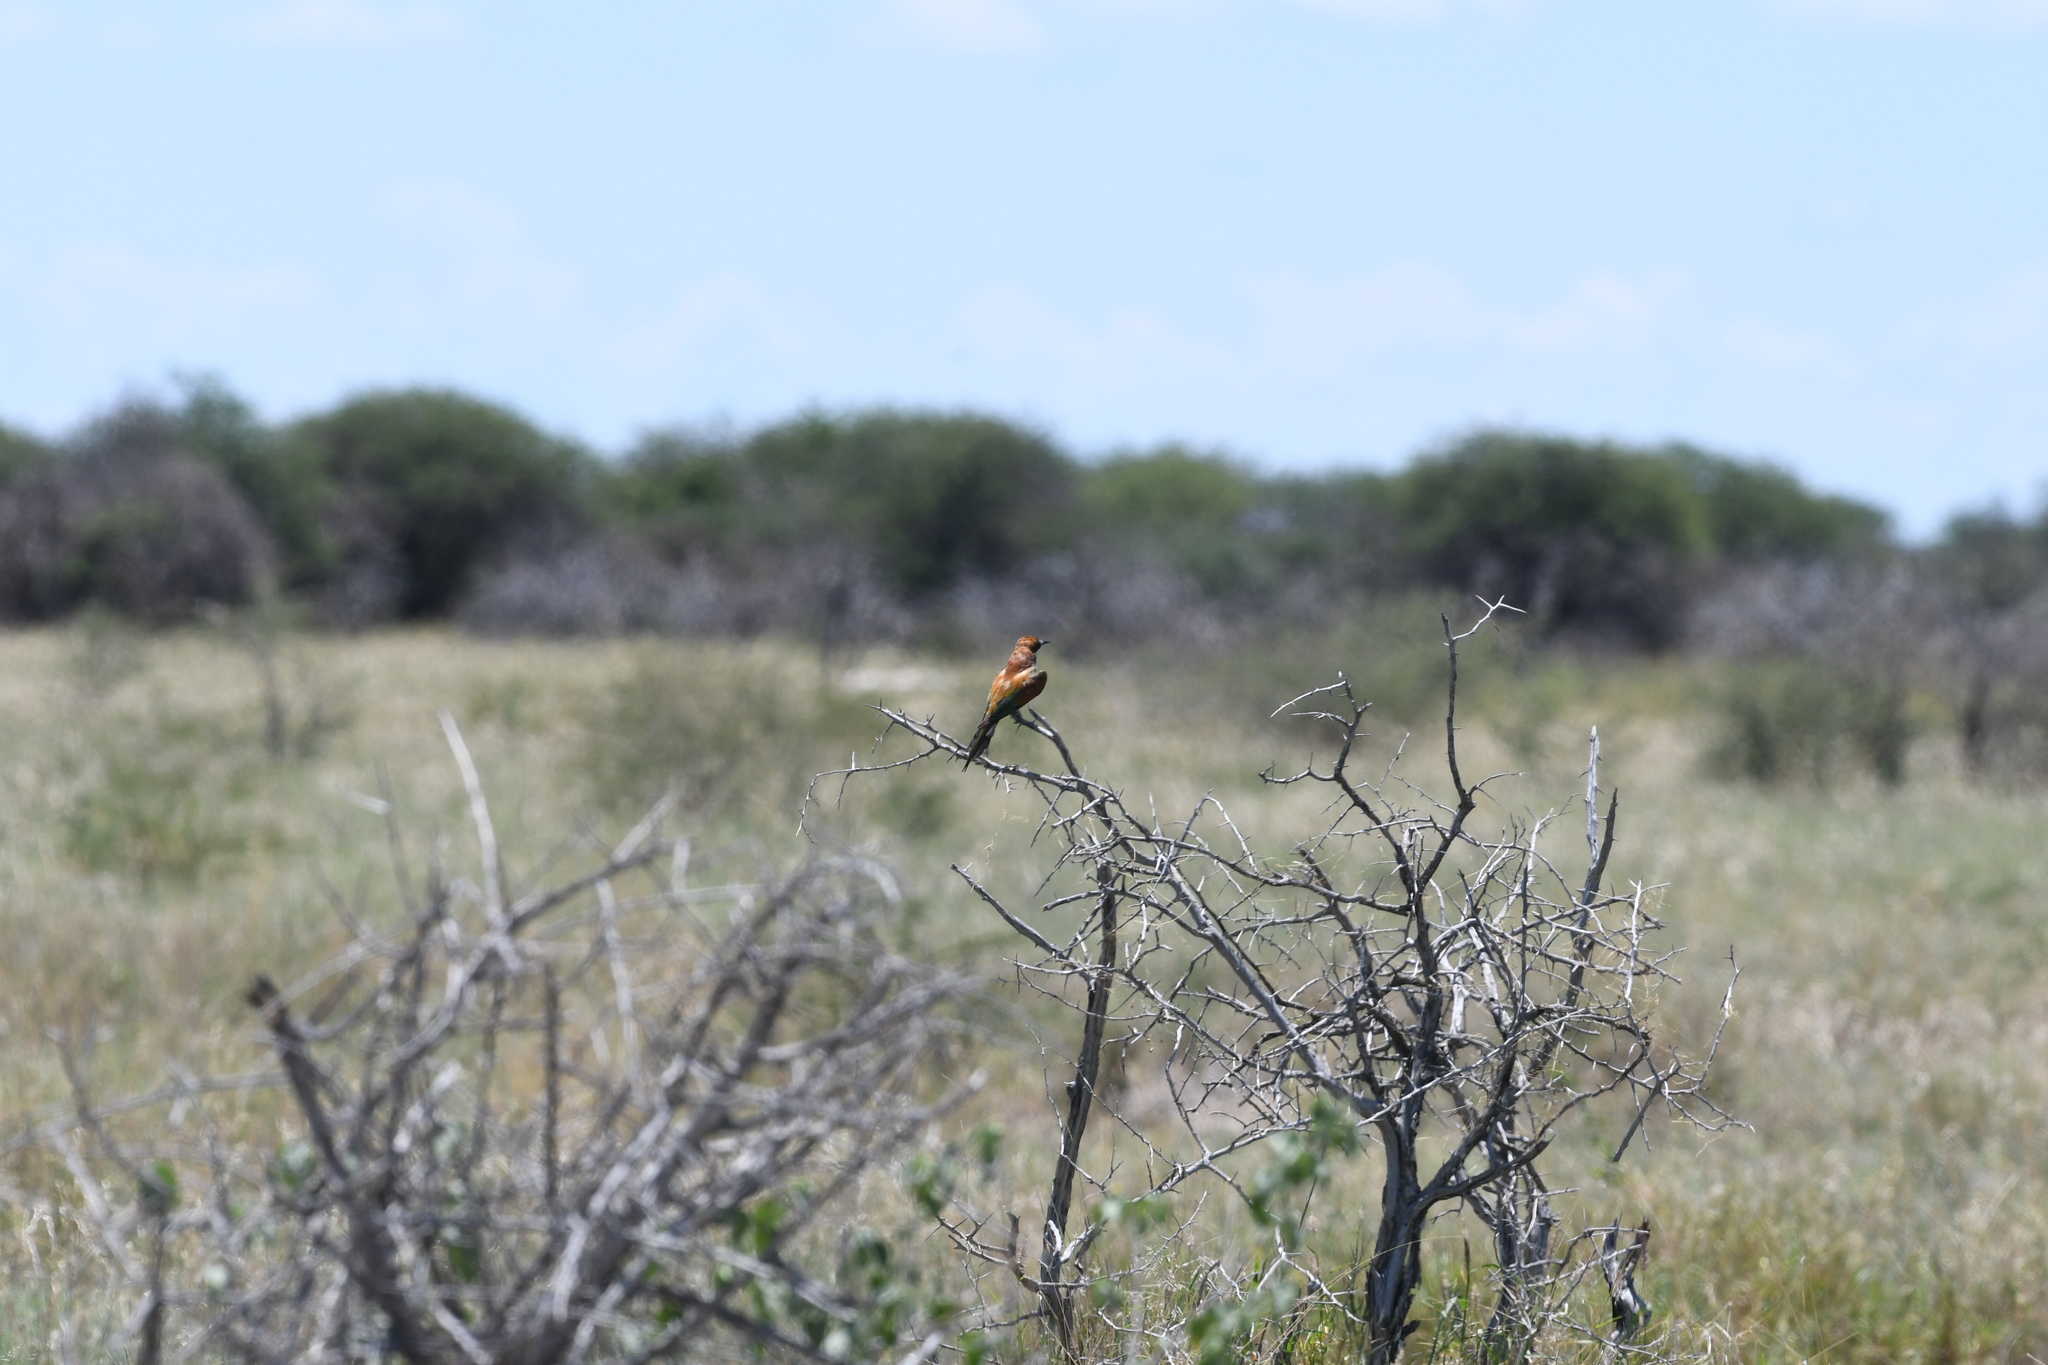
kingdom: Animalia
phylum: Chordata
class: Aves
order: Coraciiformes
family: Meropidae
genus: Merops
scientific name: Merops apiaster
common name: European bee-eater
